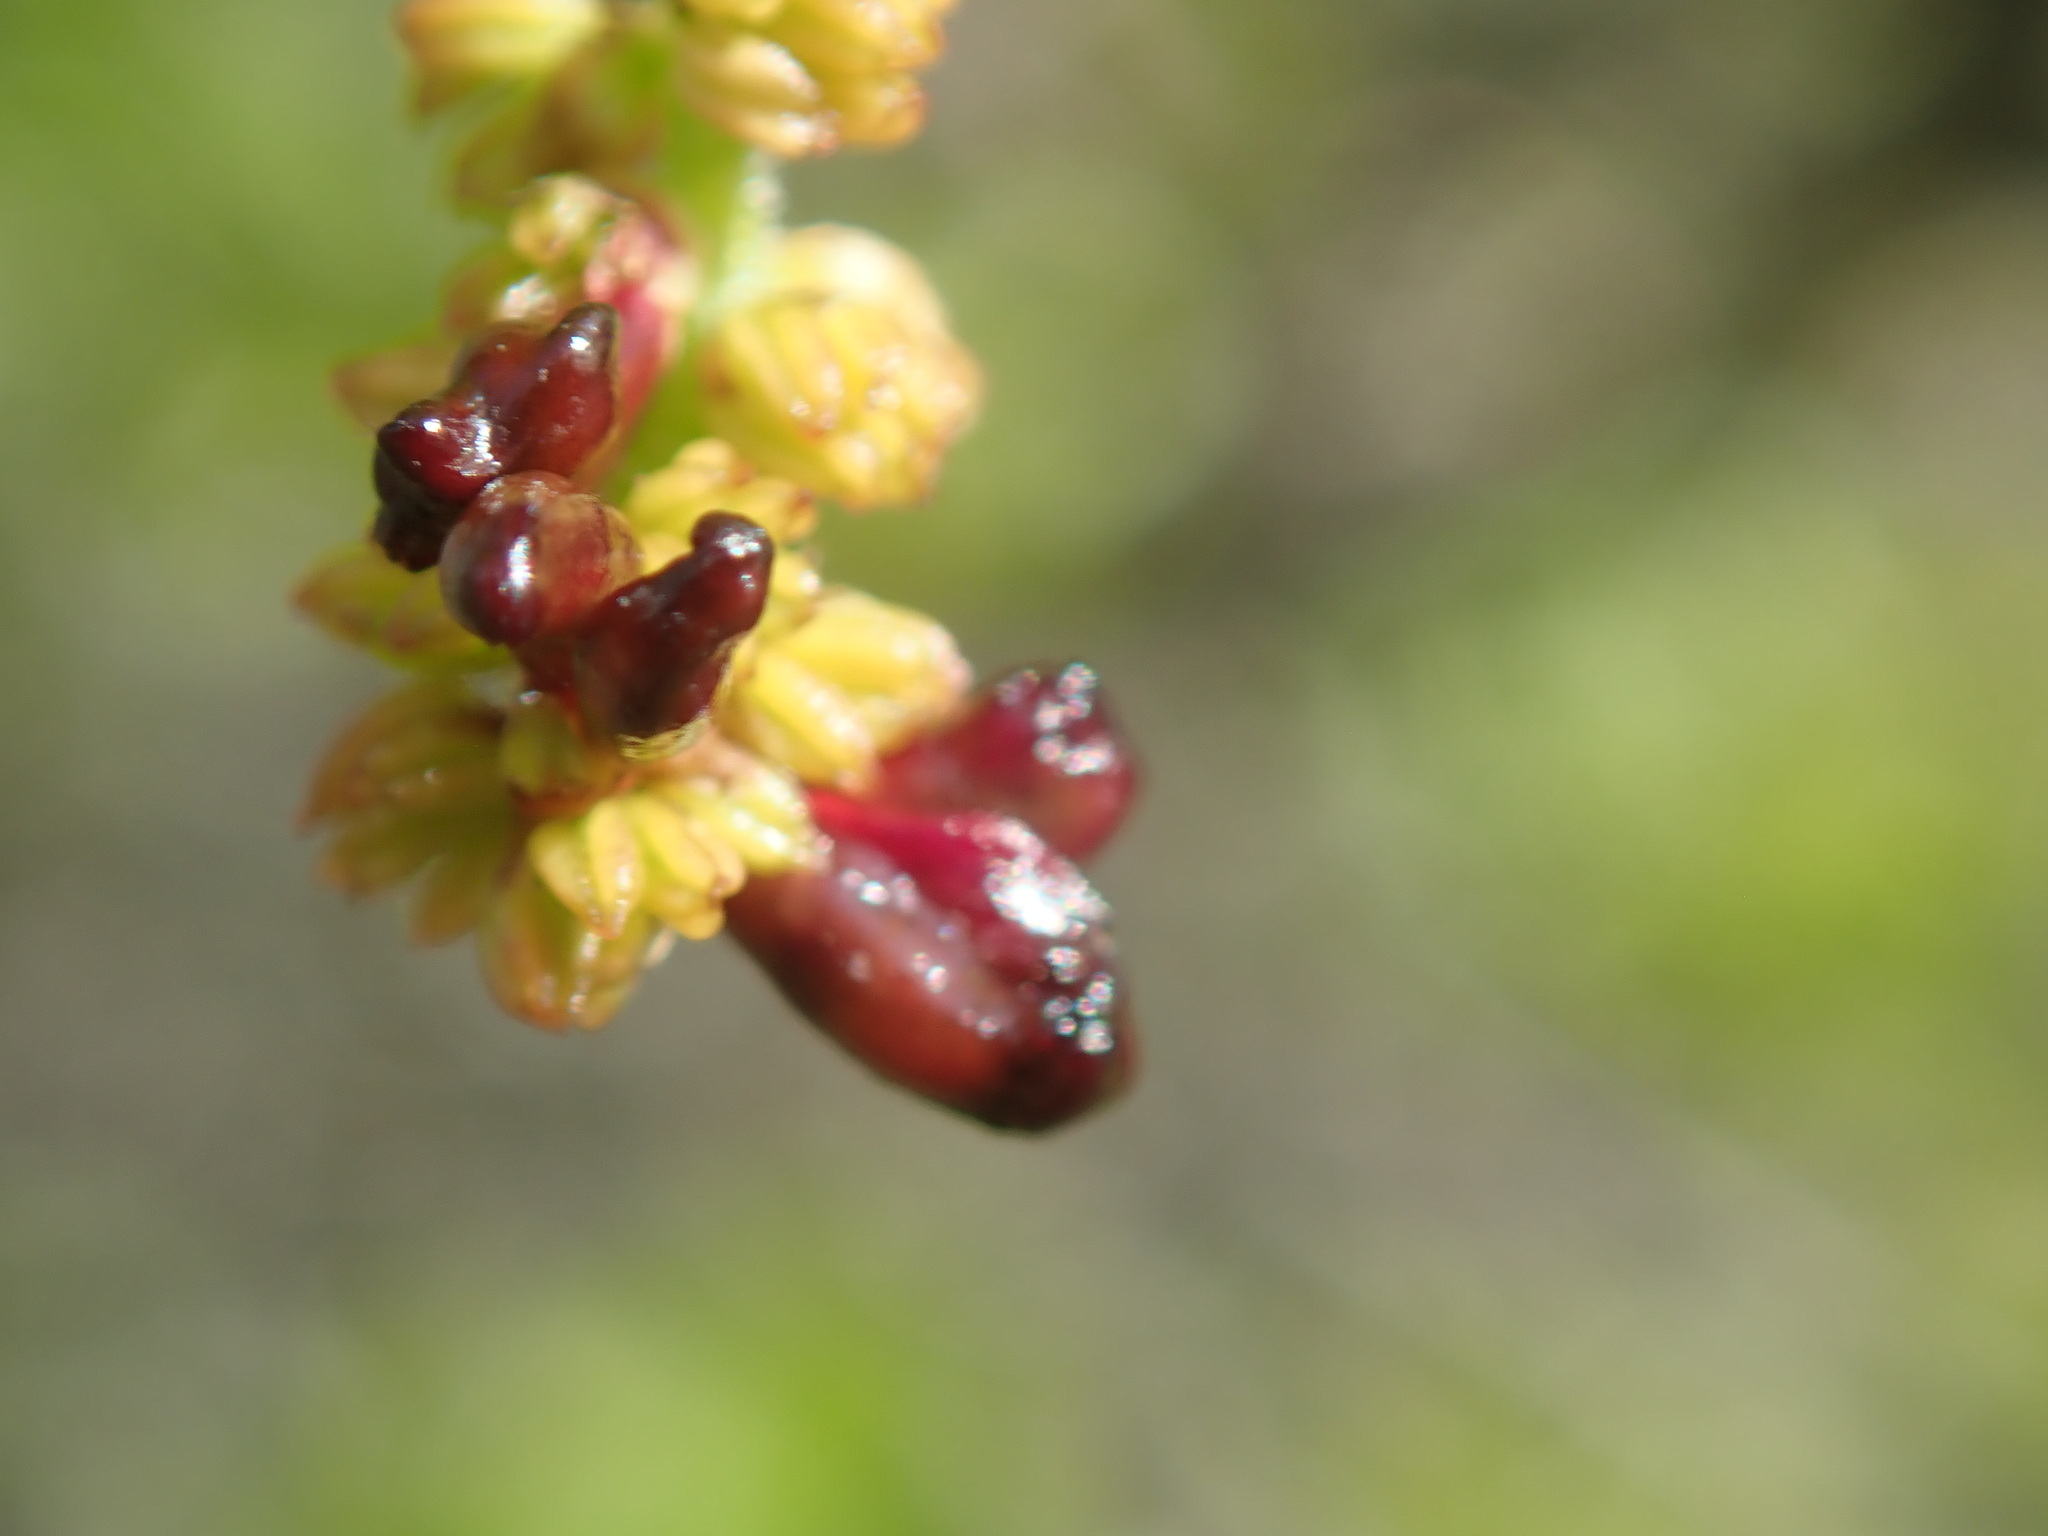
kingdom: Animalia
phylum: Arthropoda
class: Insecta
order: Hymenoptera
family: Cynipidae
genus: Dryocosmus
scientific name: Dryocosmus
